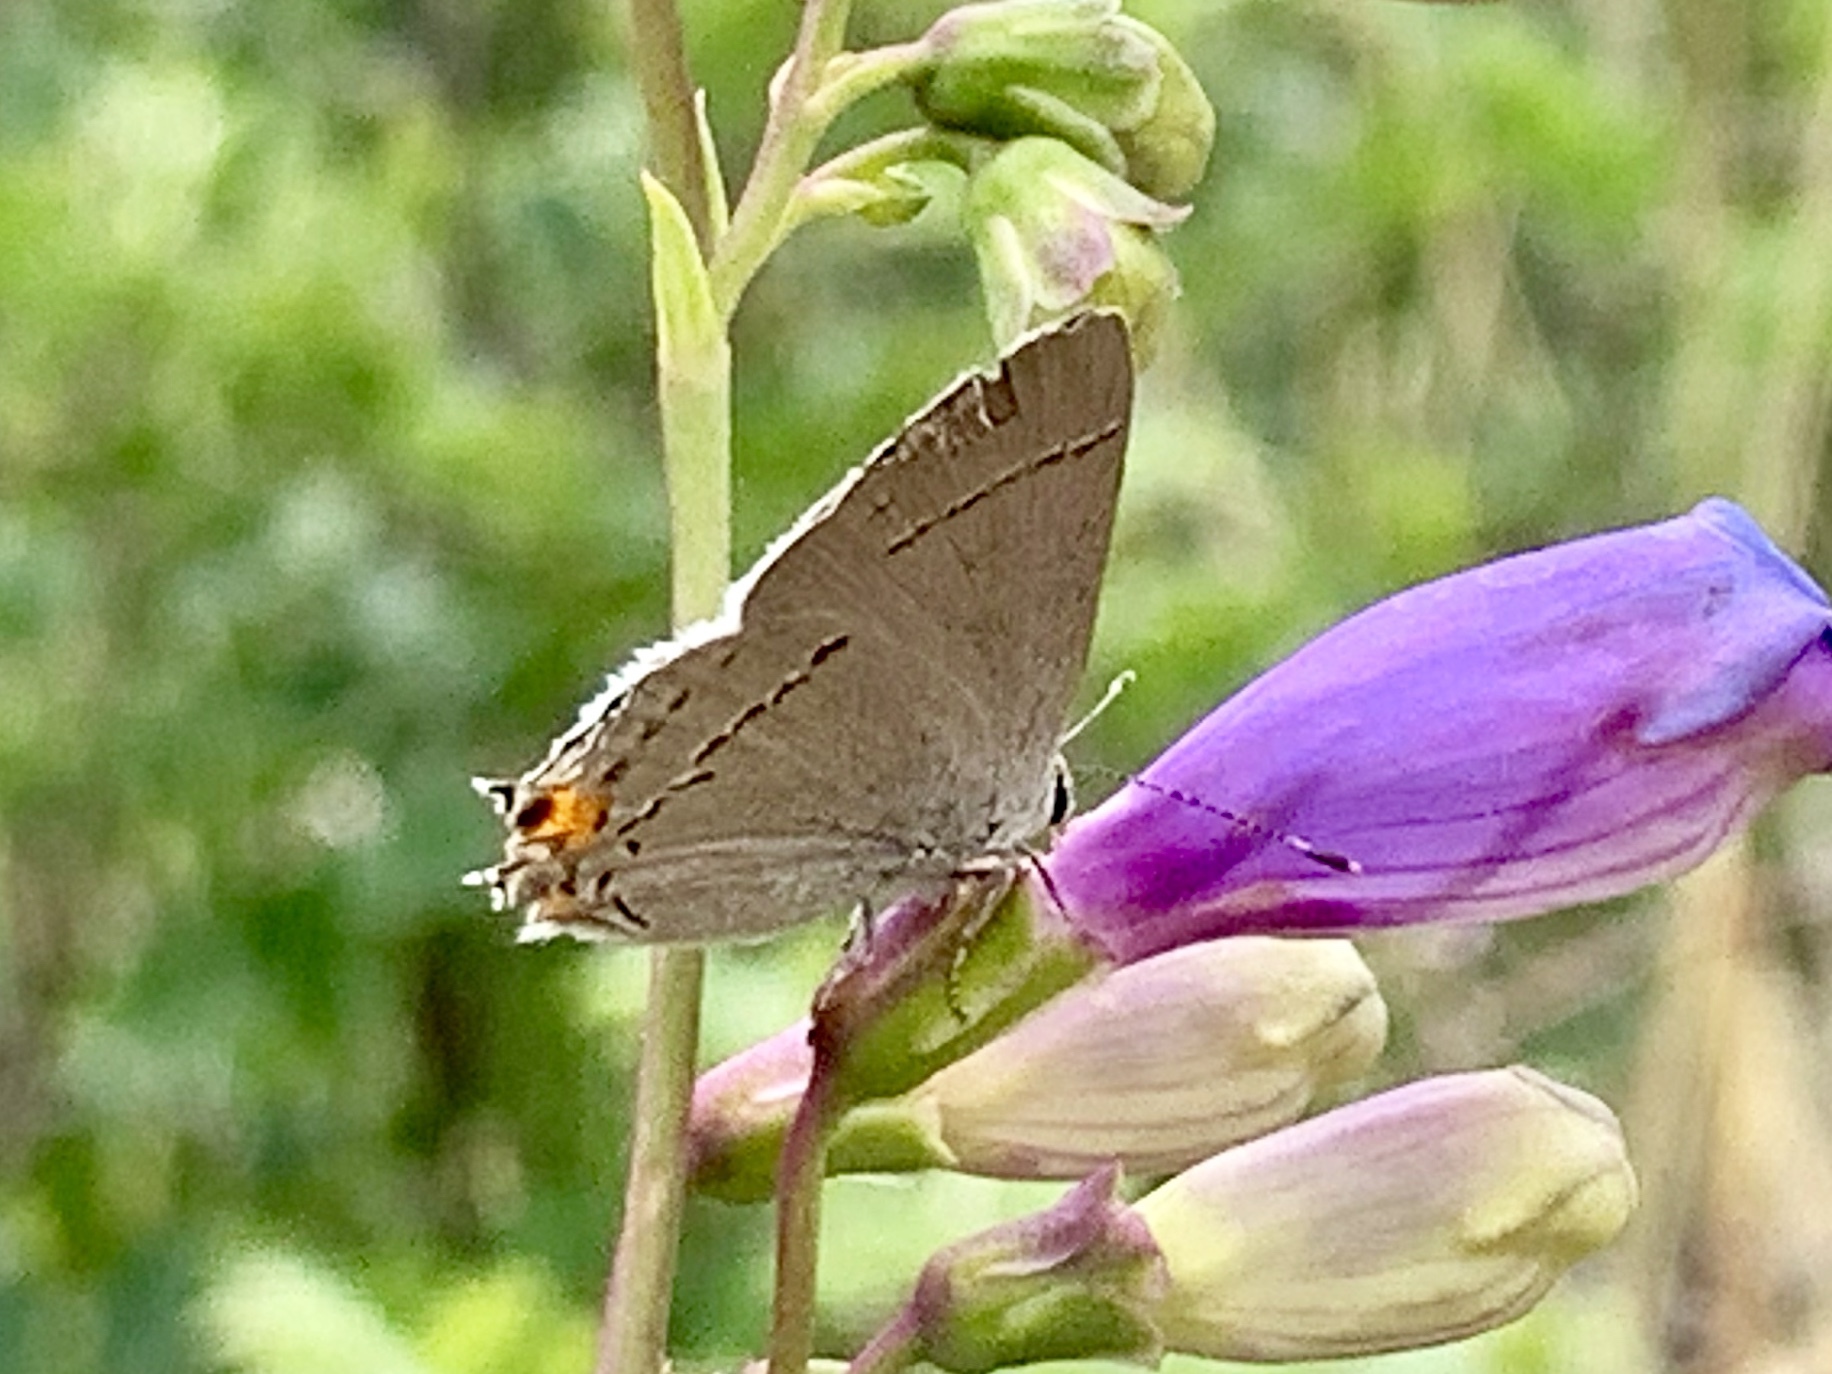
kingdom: Animalia
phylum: Arthropoda
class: Insecta
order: Lepidoptera
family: Lycaenidae
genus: Strymon
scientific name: Strymon melinus
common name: Gray hairstreak
